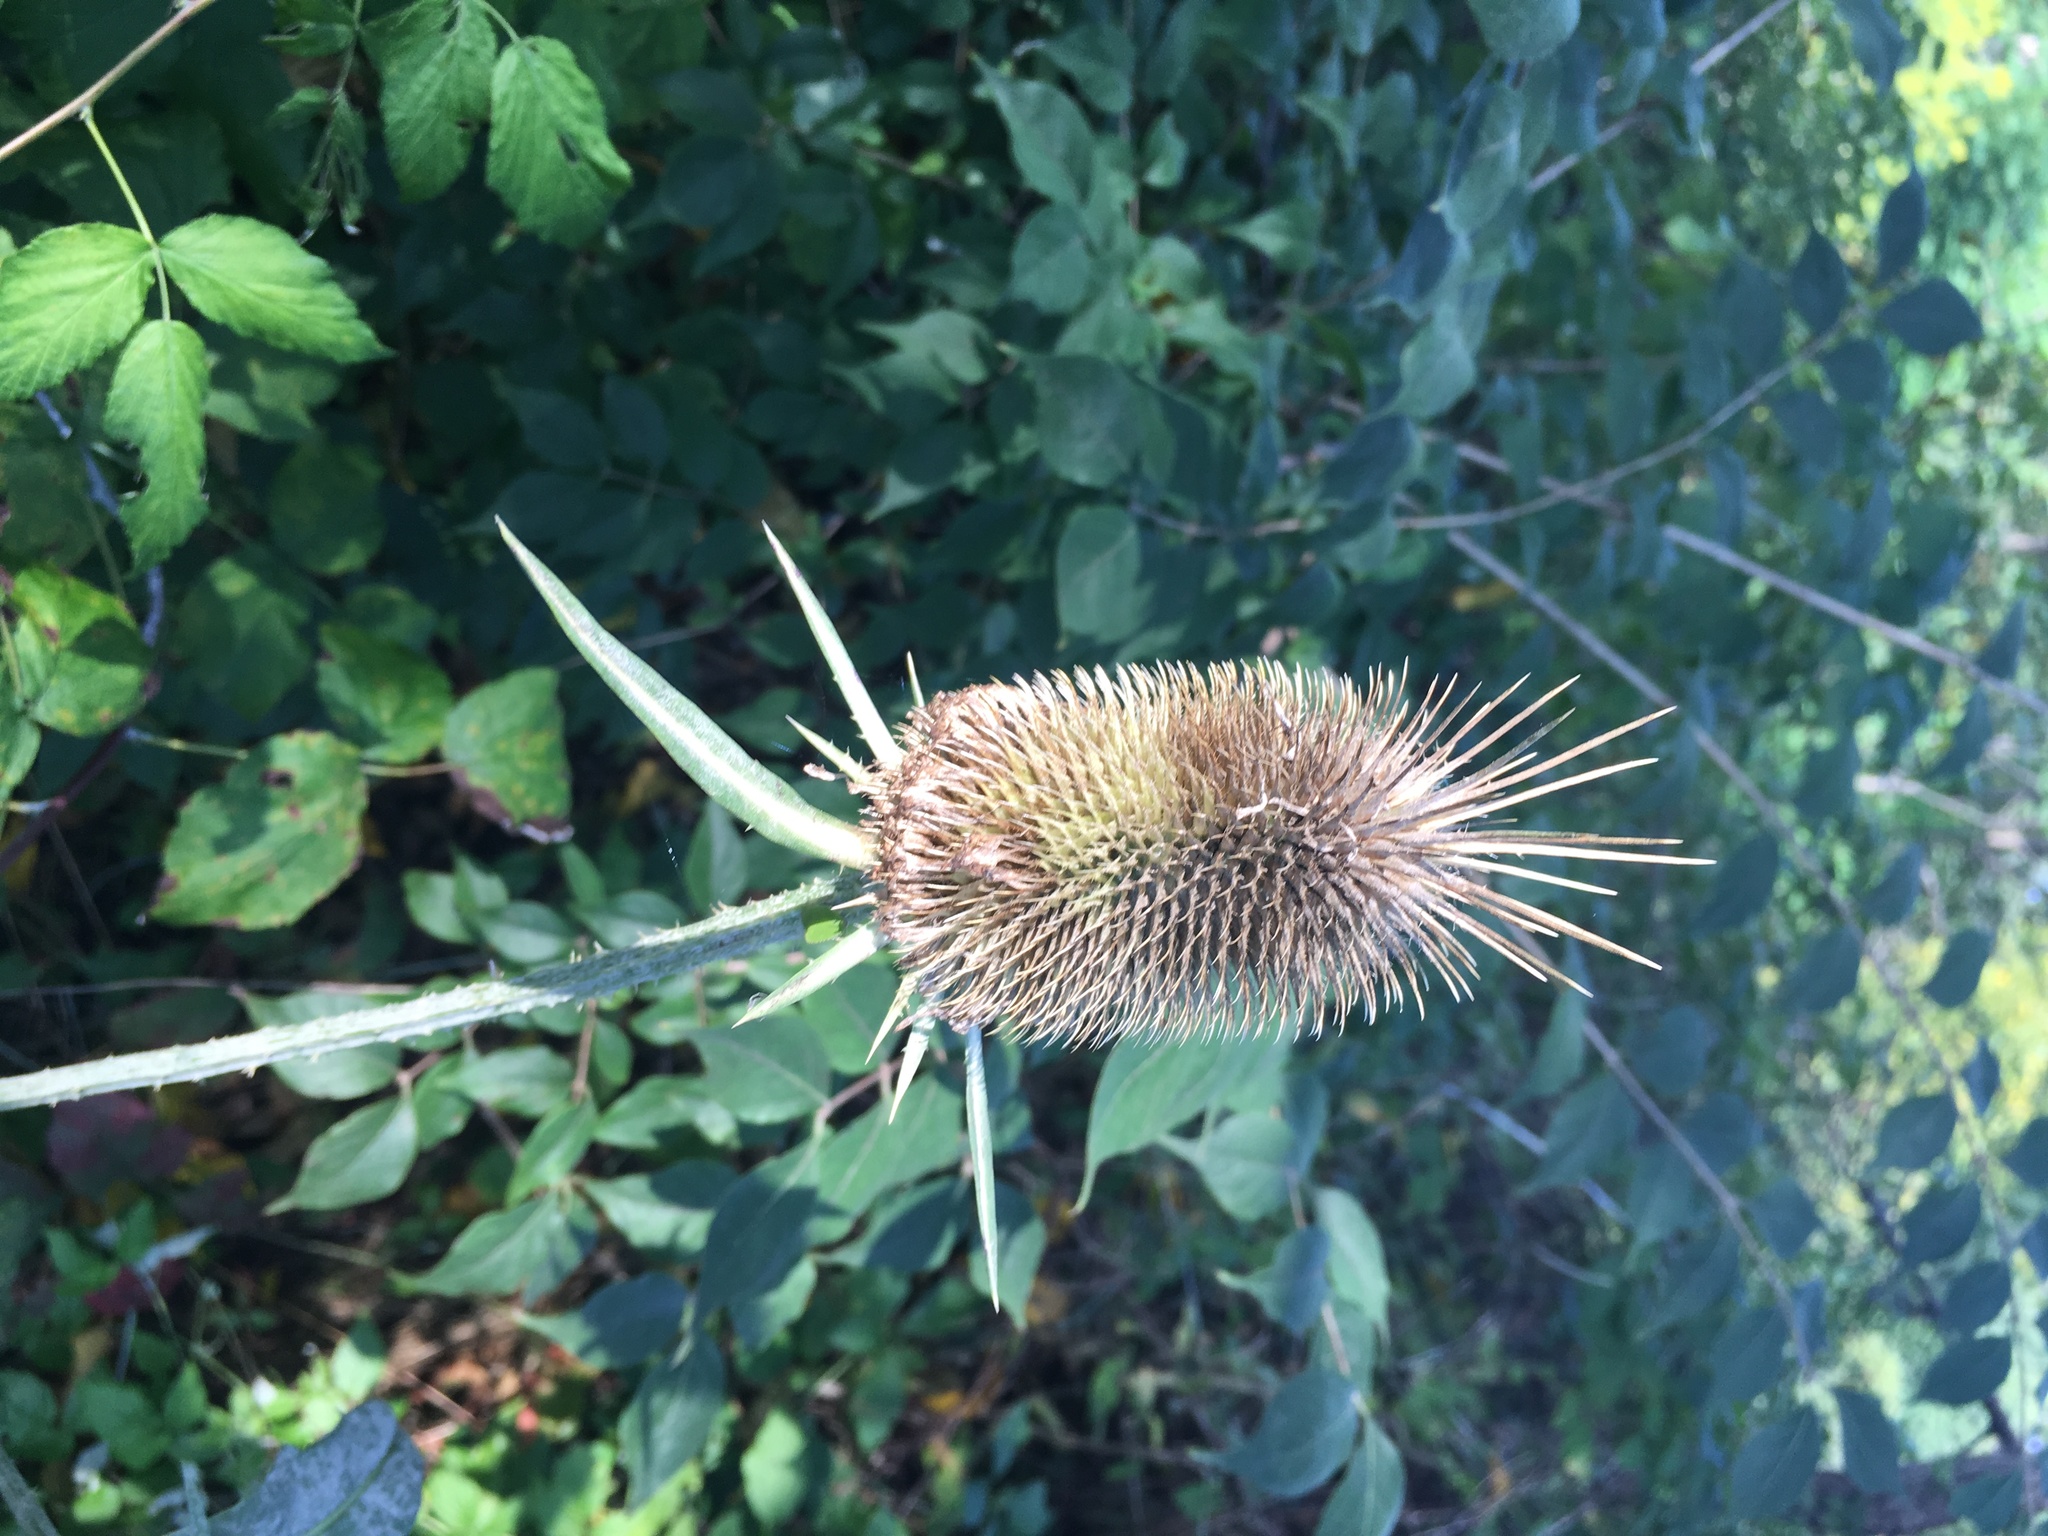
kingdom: Plantae
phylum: Tracheophyta
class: Magnoliopsida
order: Dipsacales
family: Caprifoliaceae
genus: Dipsacus
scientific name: Dipsacus laciniatus
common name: Cut-leaved teasel
